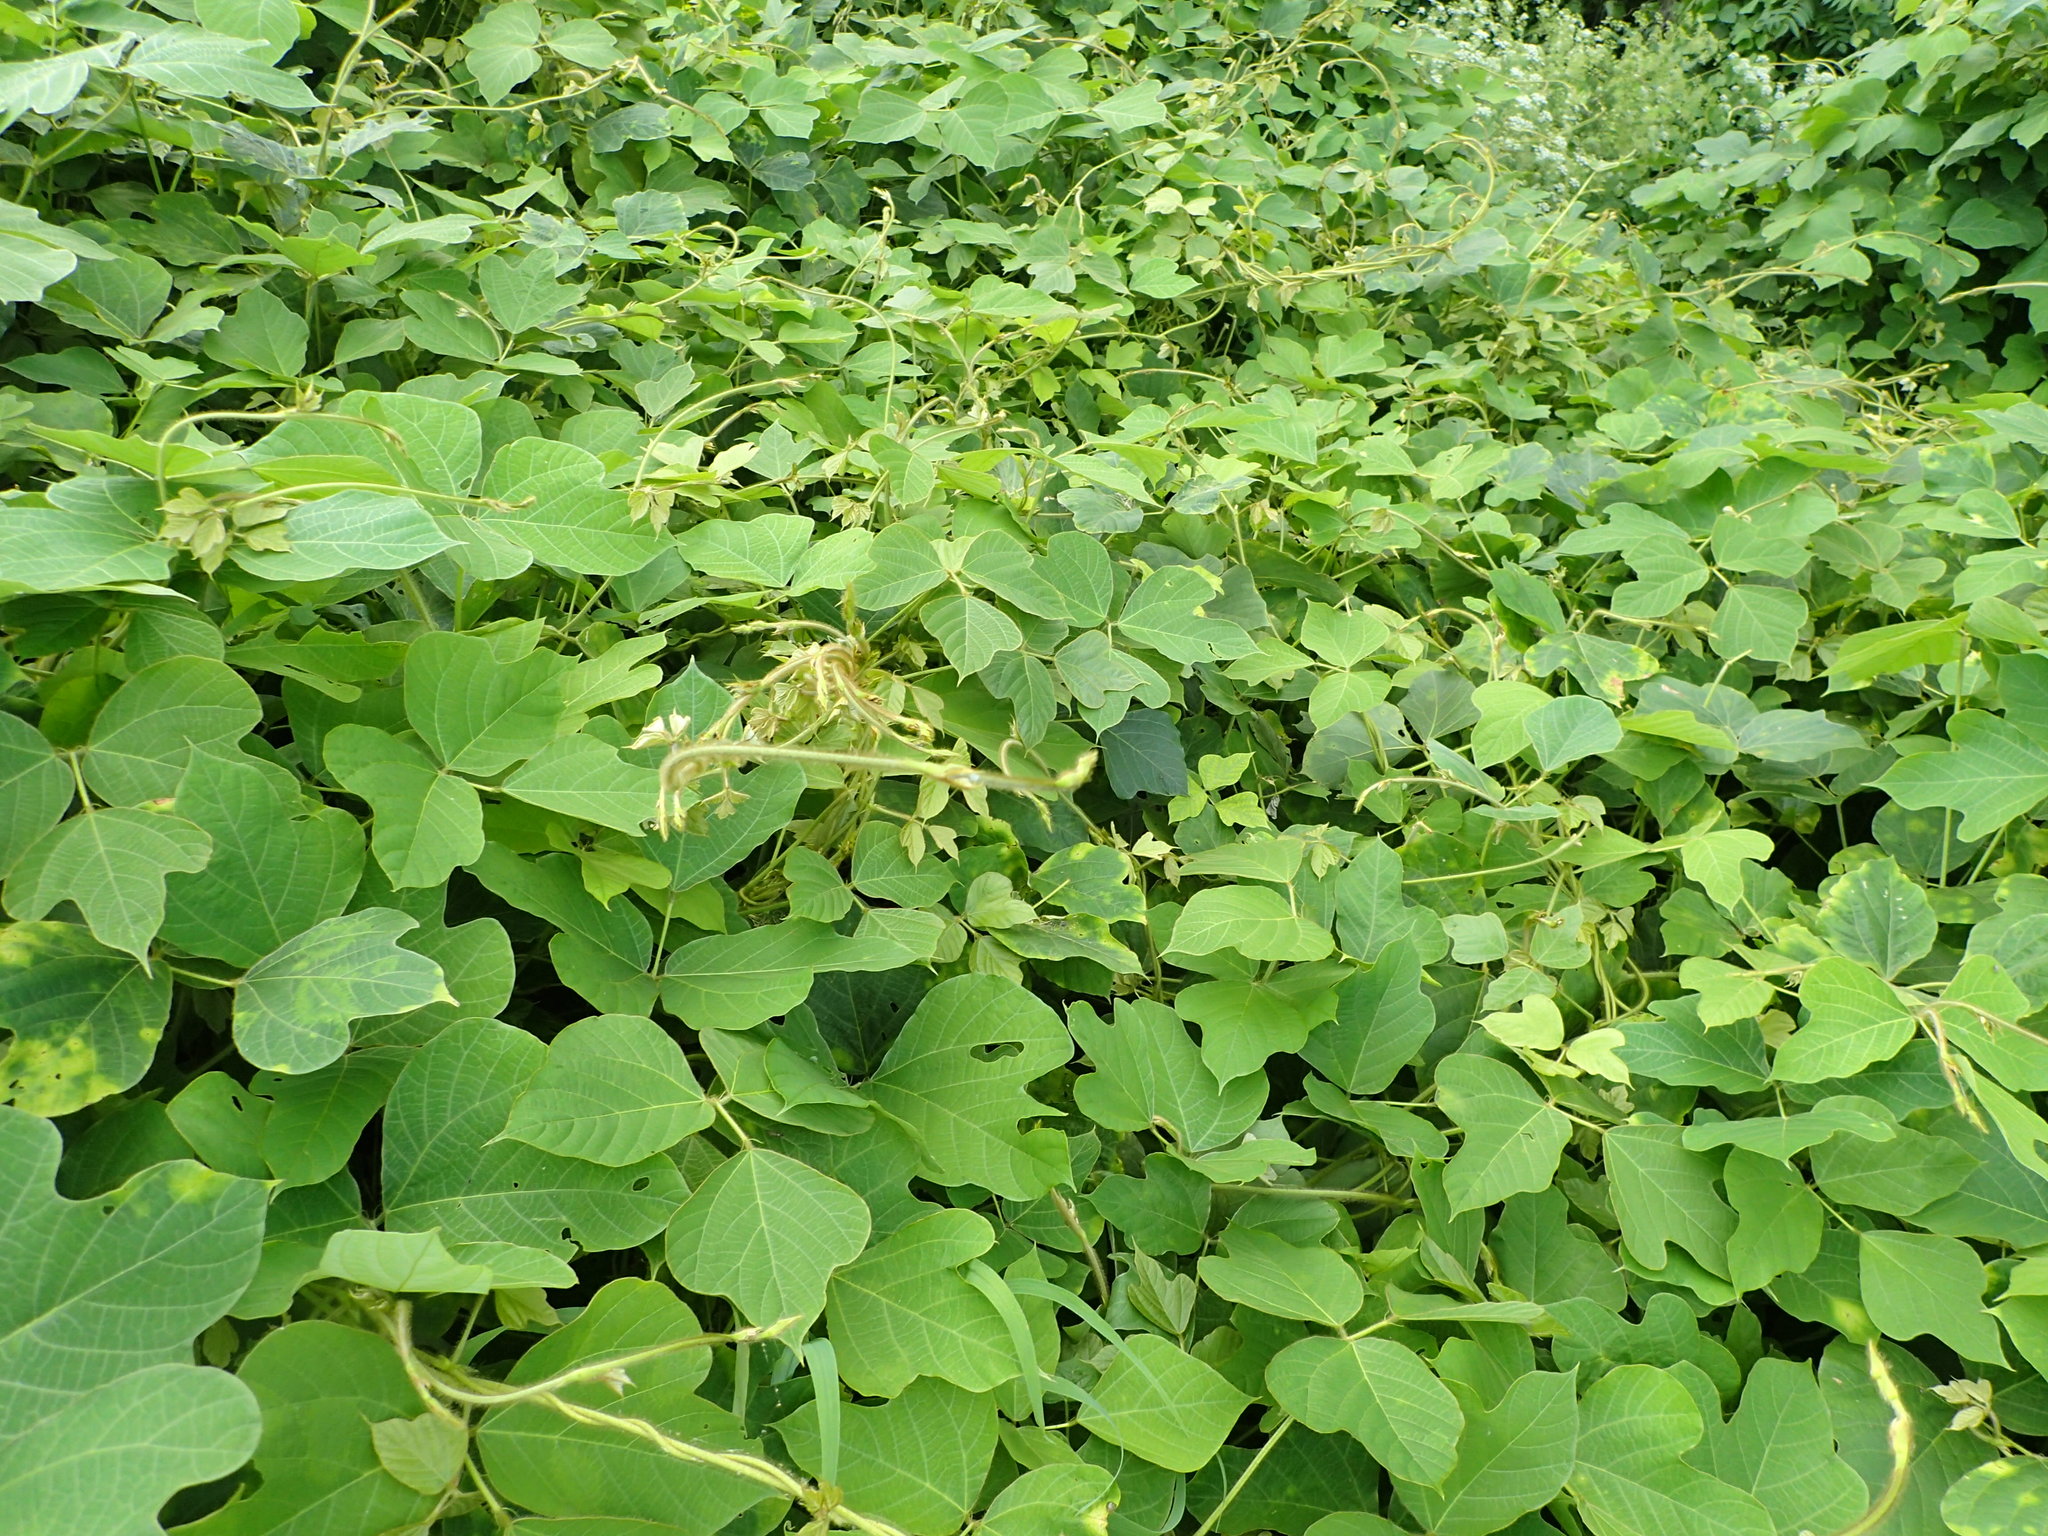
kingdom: Plantae
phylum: Tracheophyta
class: Magnoliopsida
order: Fabales
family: Fabaceae
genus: Pueraria
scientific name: Pueraria montana
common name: Kudzu
